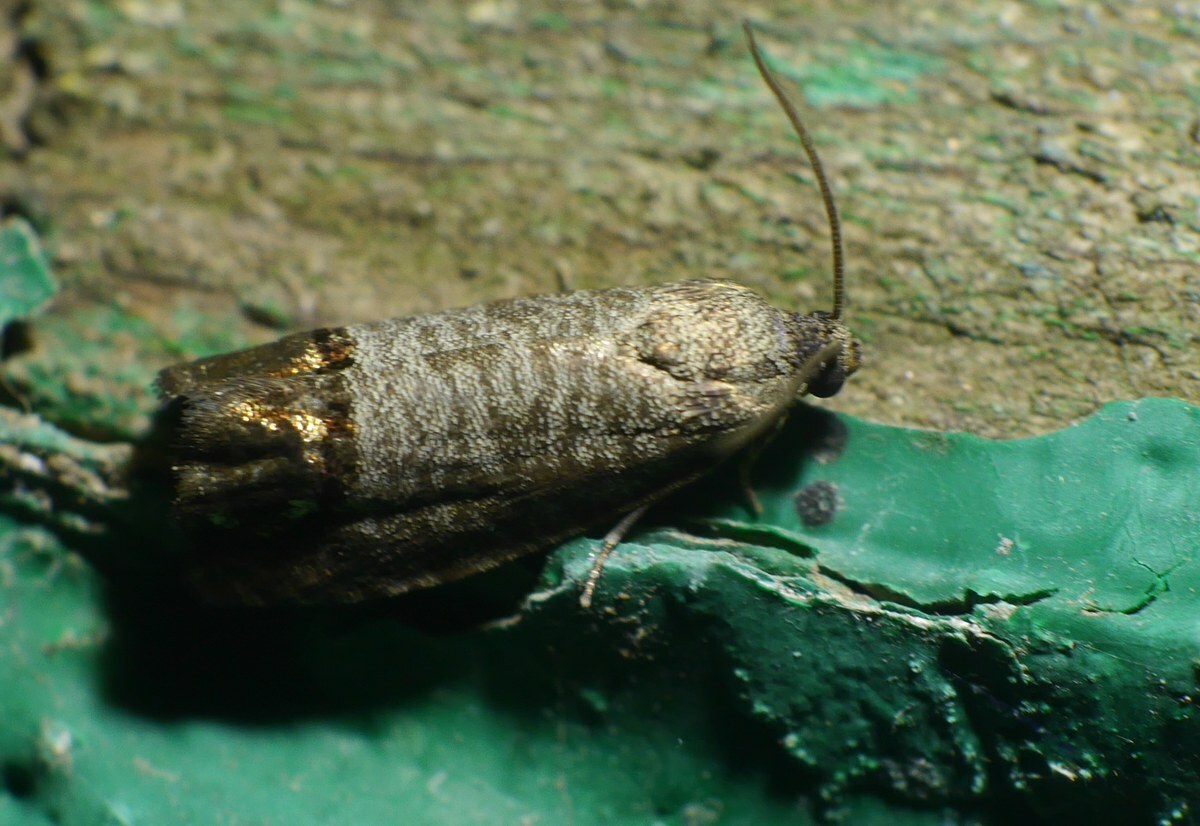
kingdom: Animalia
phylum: Arthropoda
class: Insecta
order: Lepidoptera
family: Tortricidae
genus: Cydia
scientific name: Cydia pomonella
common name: Codling moth
